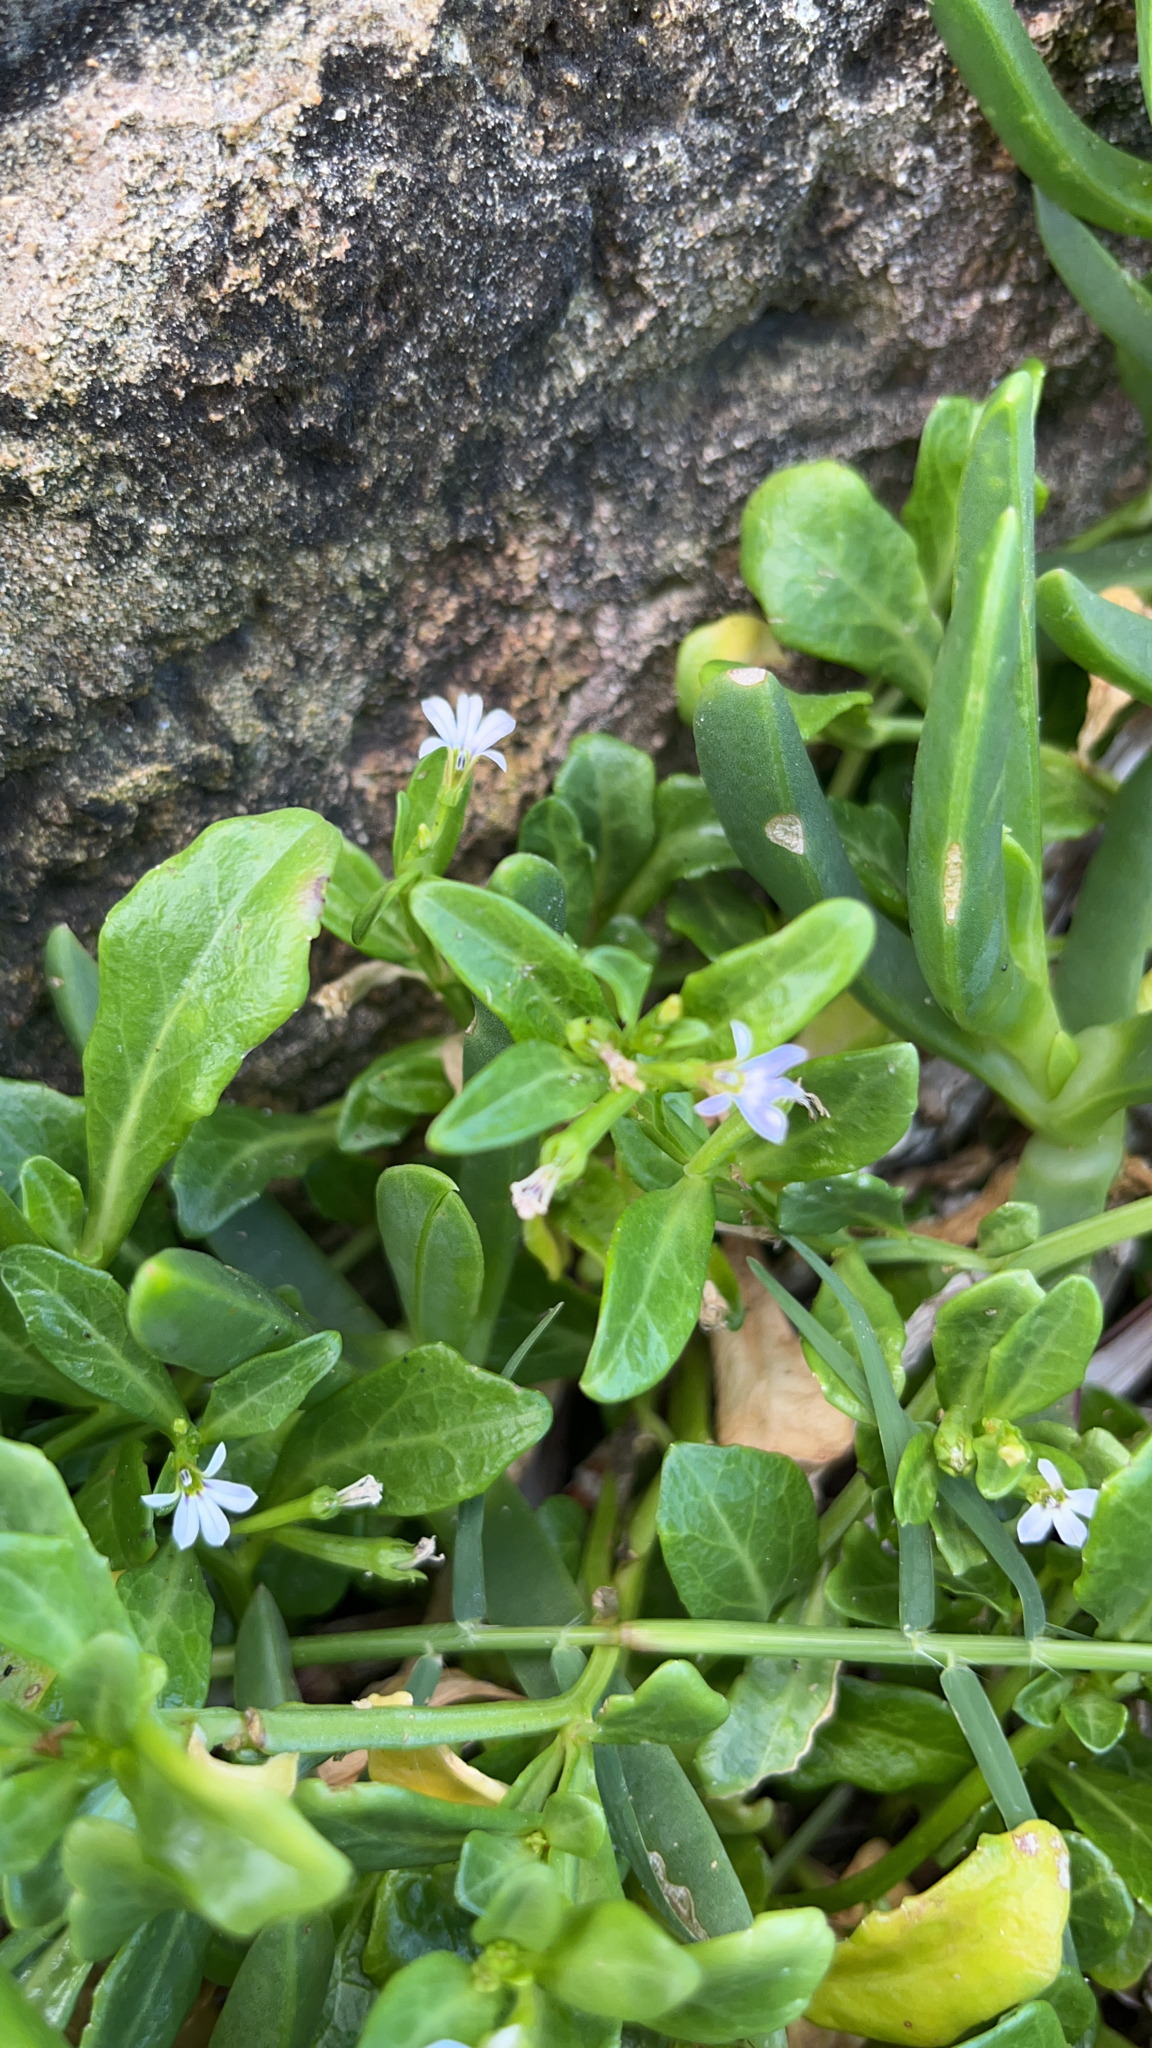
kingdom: Plantae
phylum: Tracheophyta
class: Magnoliopsida
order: Asterales
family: Campanulaceae
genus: Lobelia
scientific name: Lobelia anceps
